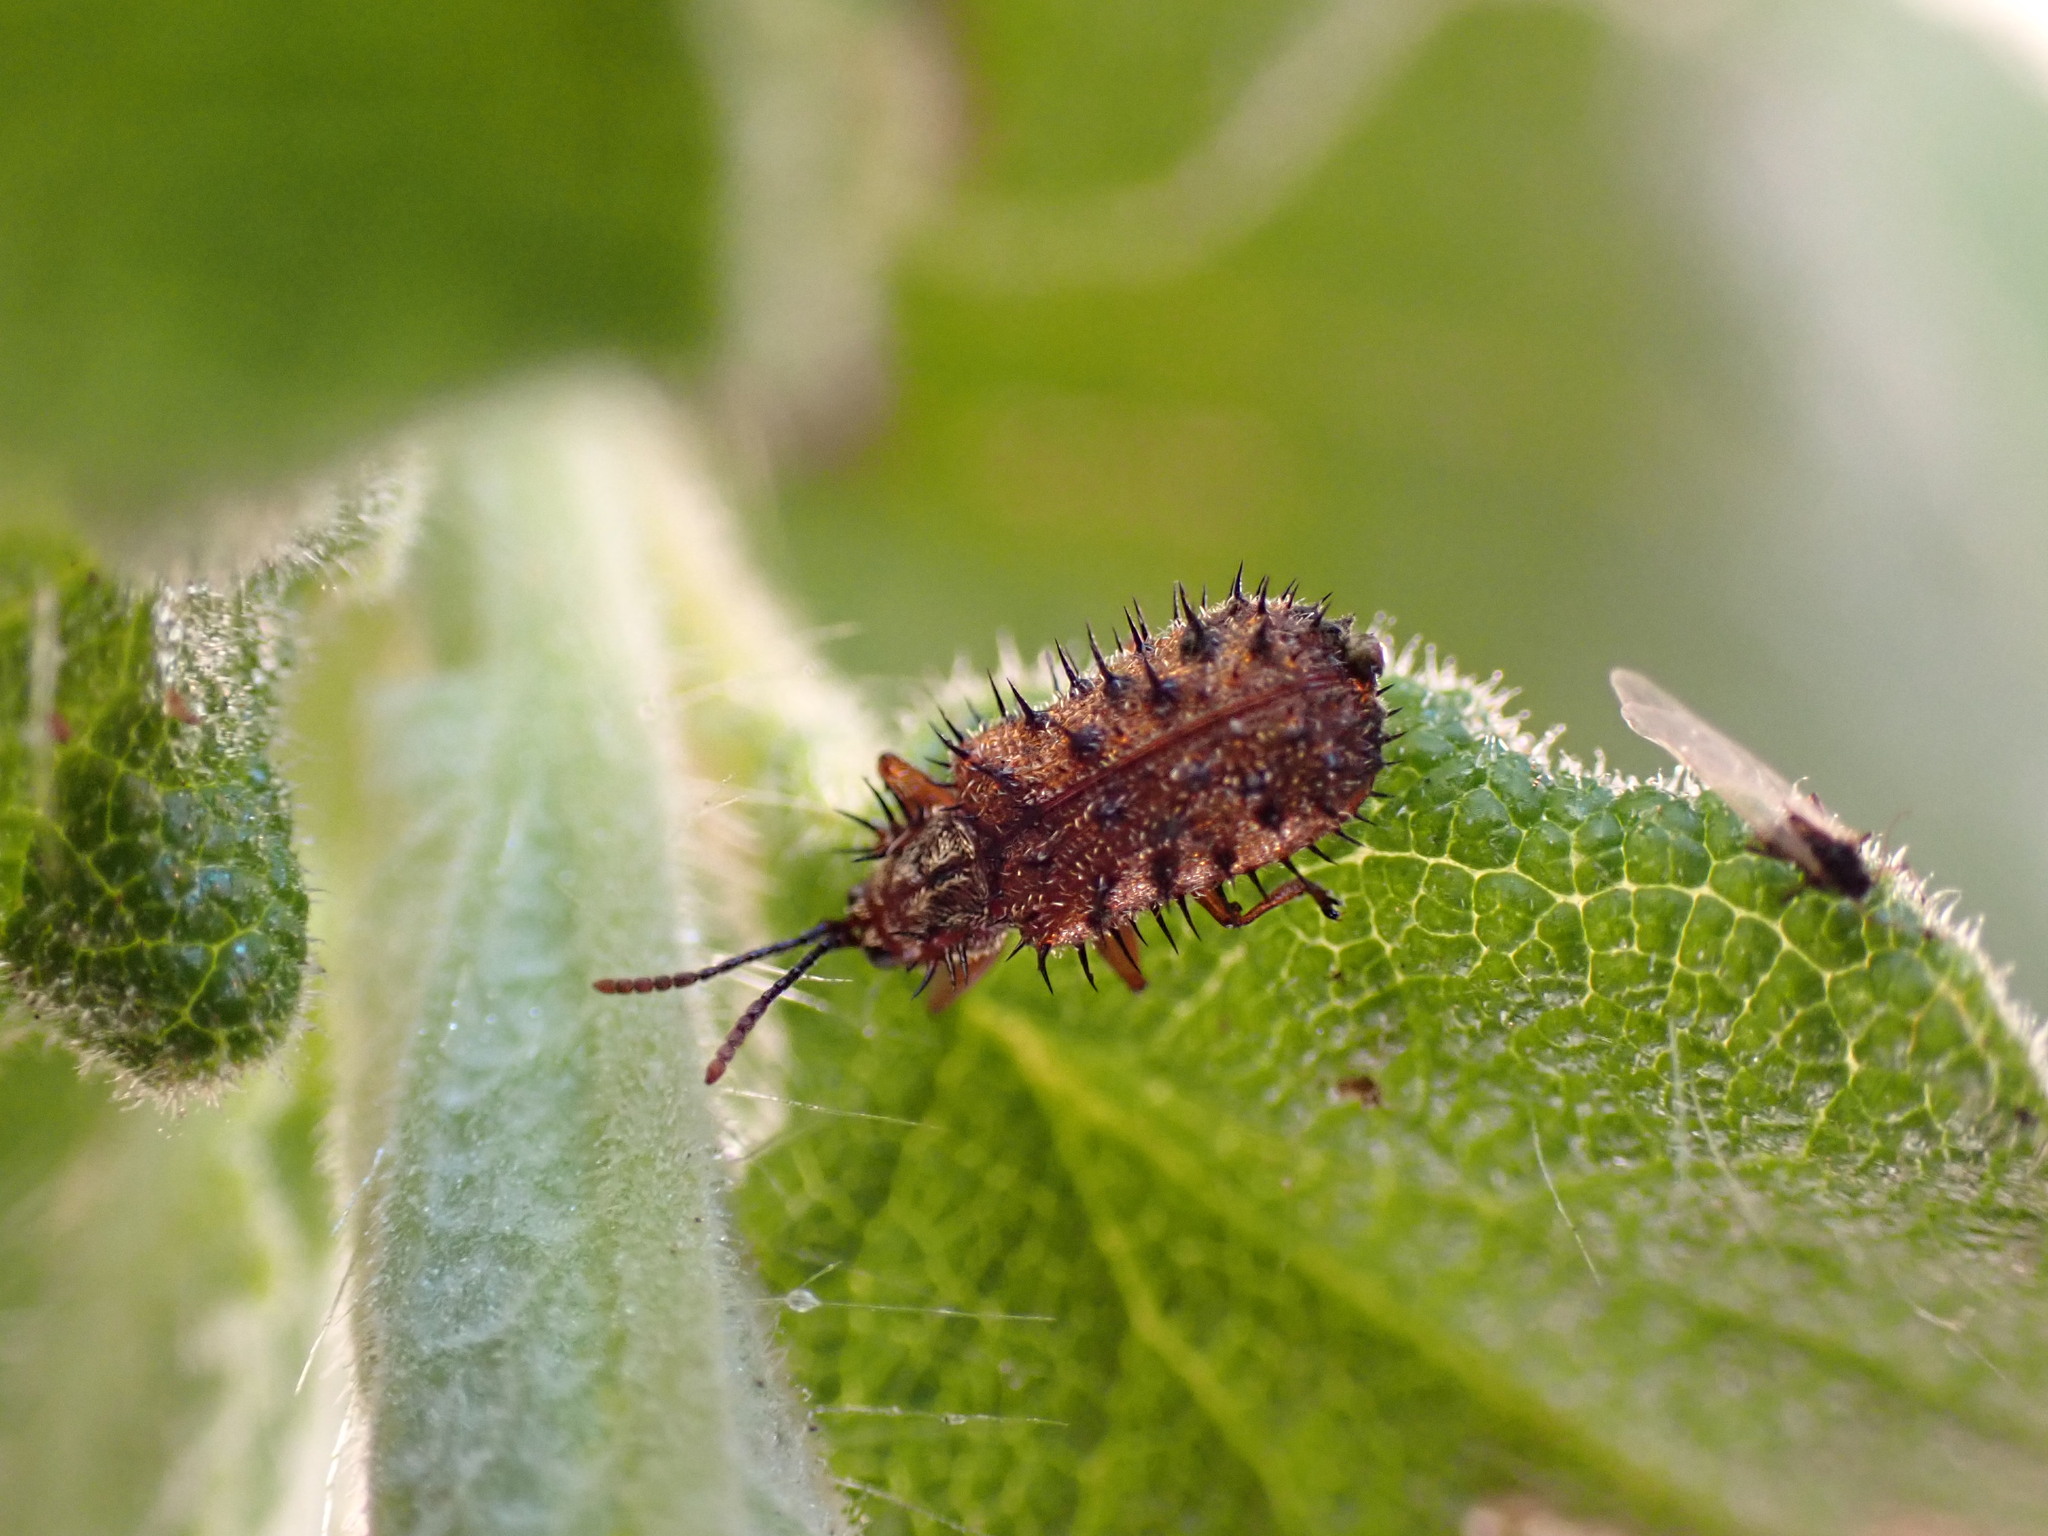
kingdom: Animalia
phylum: Arthropoda
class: Insecta
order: Coleoptera
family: Chrysomelidae
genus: Dicladispa
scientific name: Dicladispa occator
